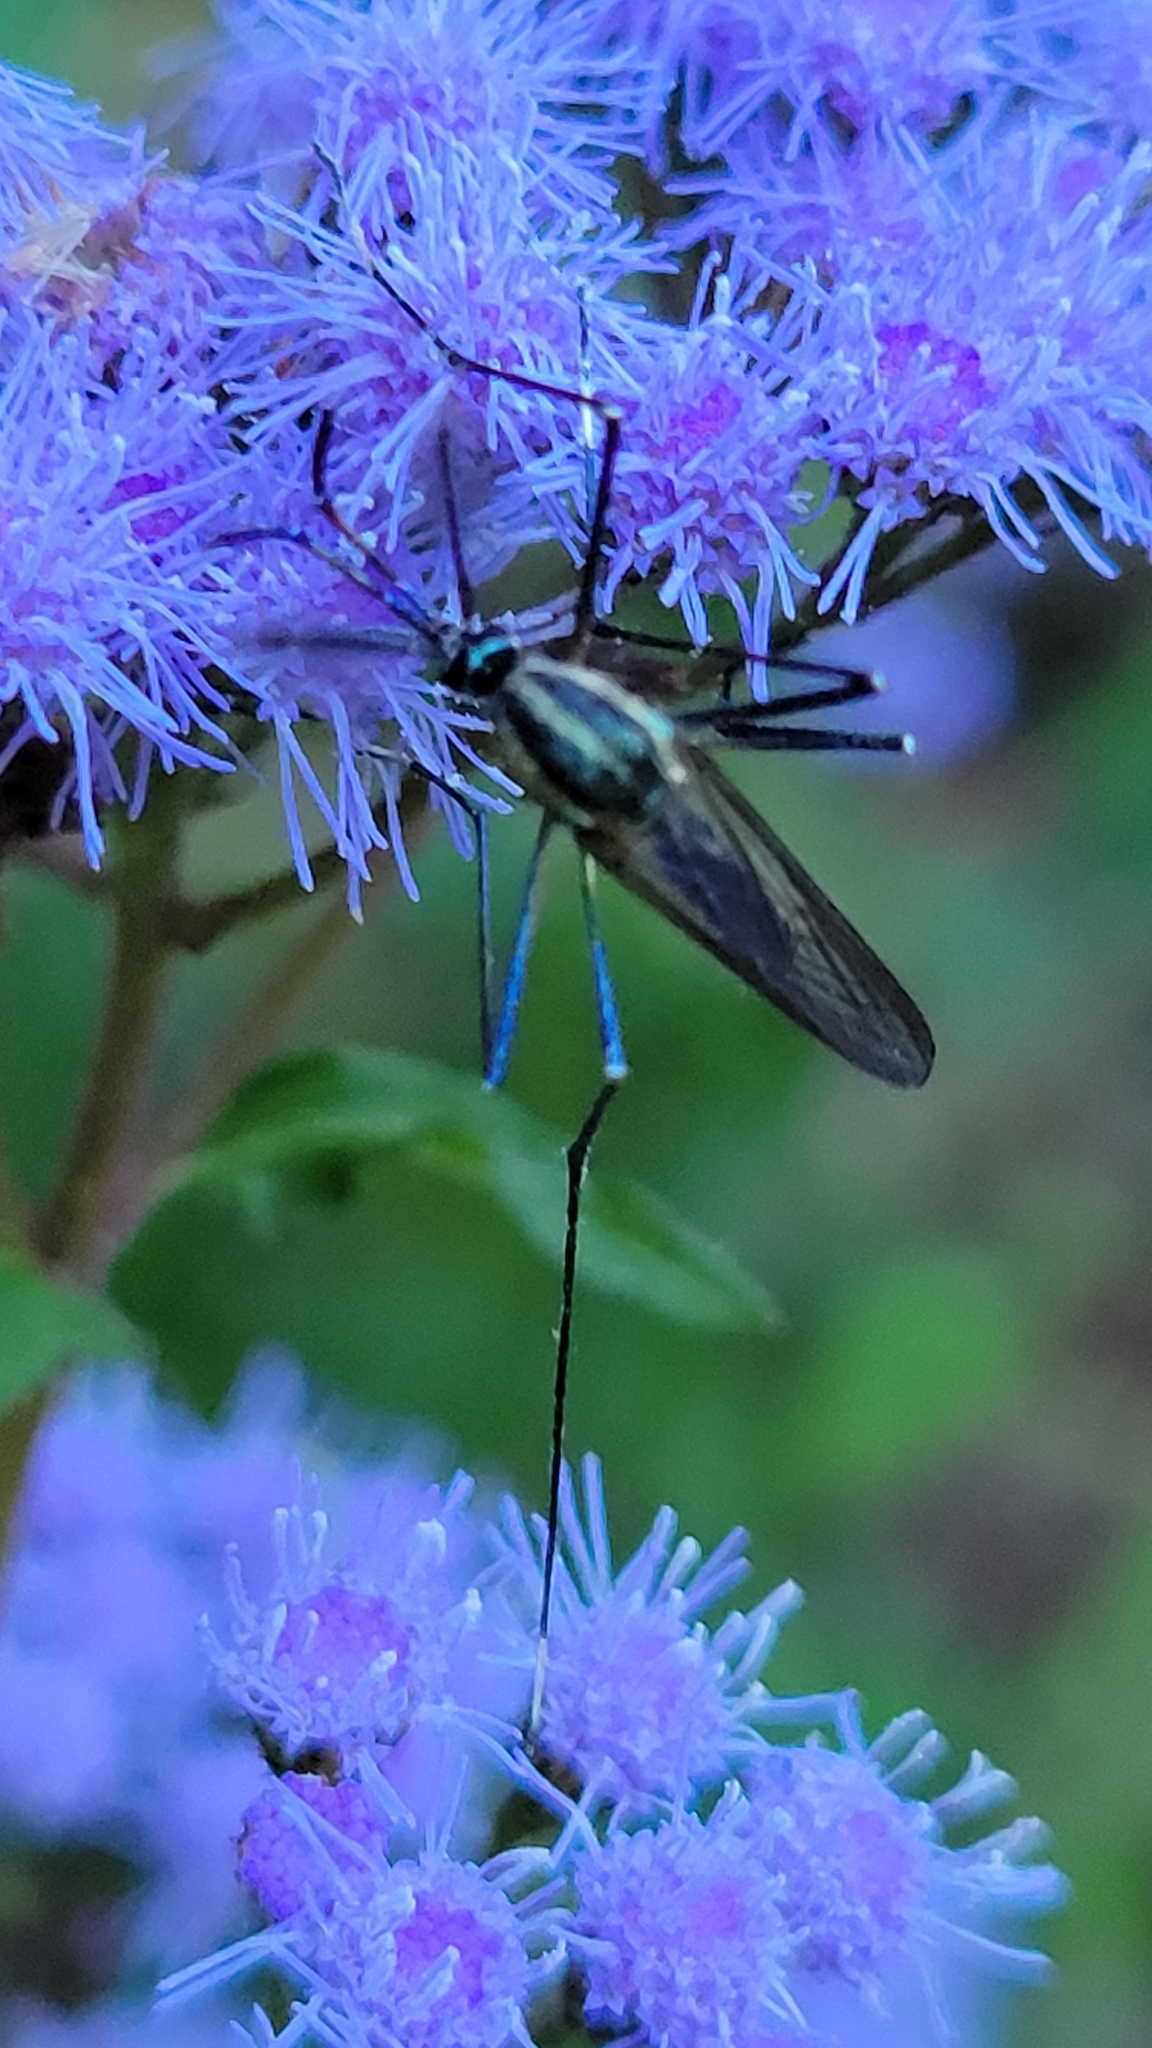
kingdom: Animalia
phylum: Arthropoda
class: Insecta
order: Diptera
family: Culicidae
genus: Toxorhynchites
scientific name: Toxorhynchites rutilus
